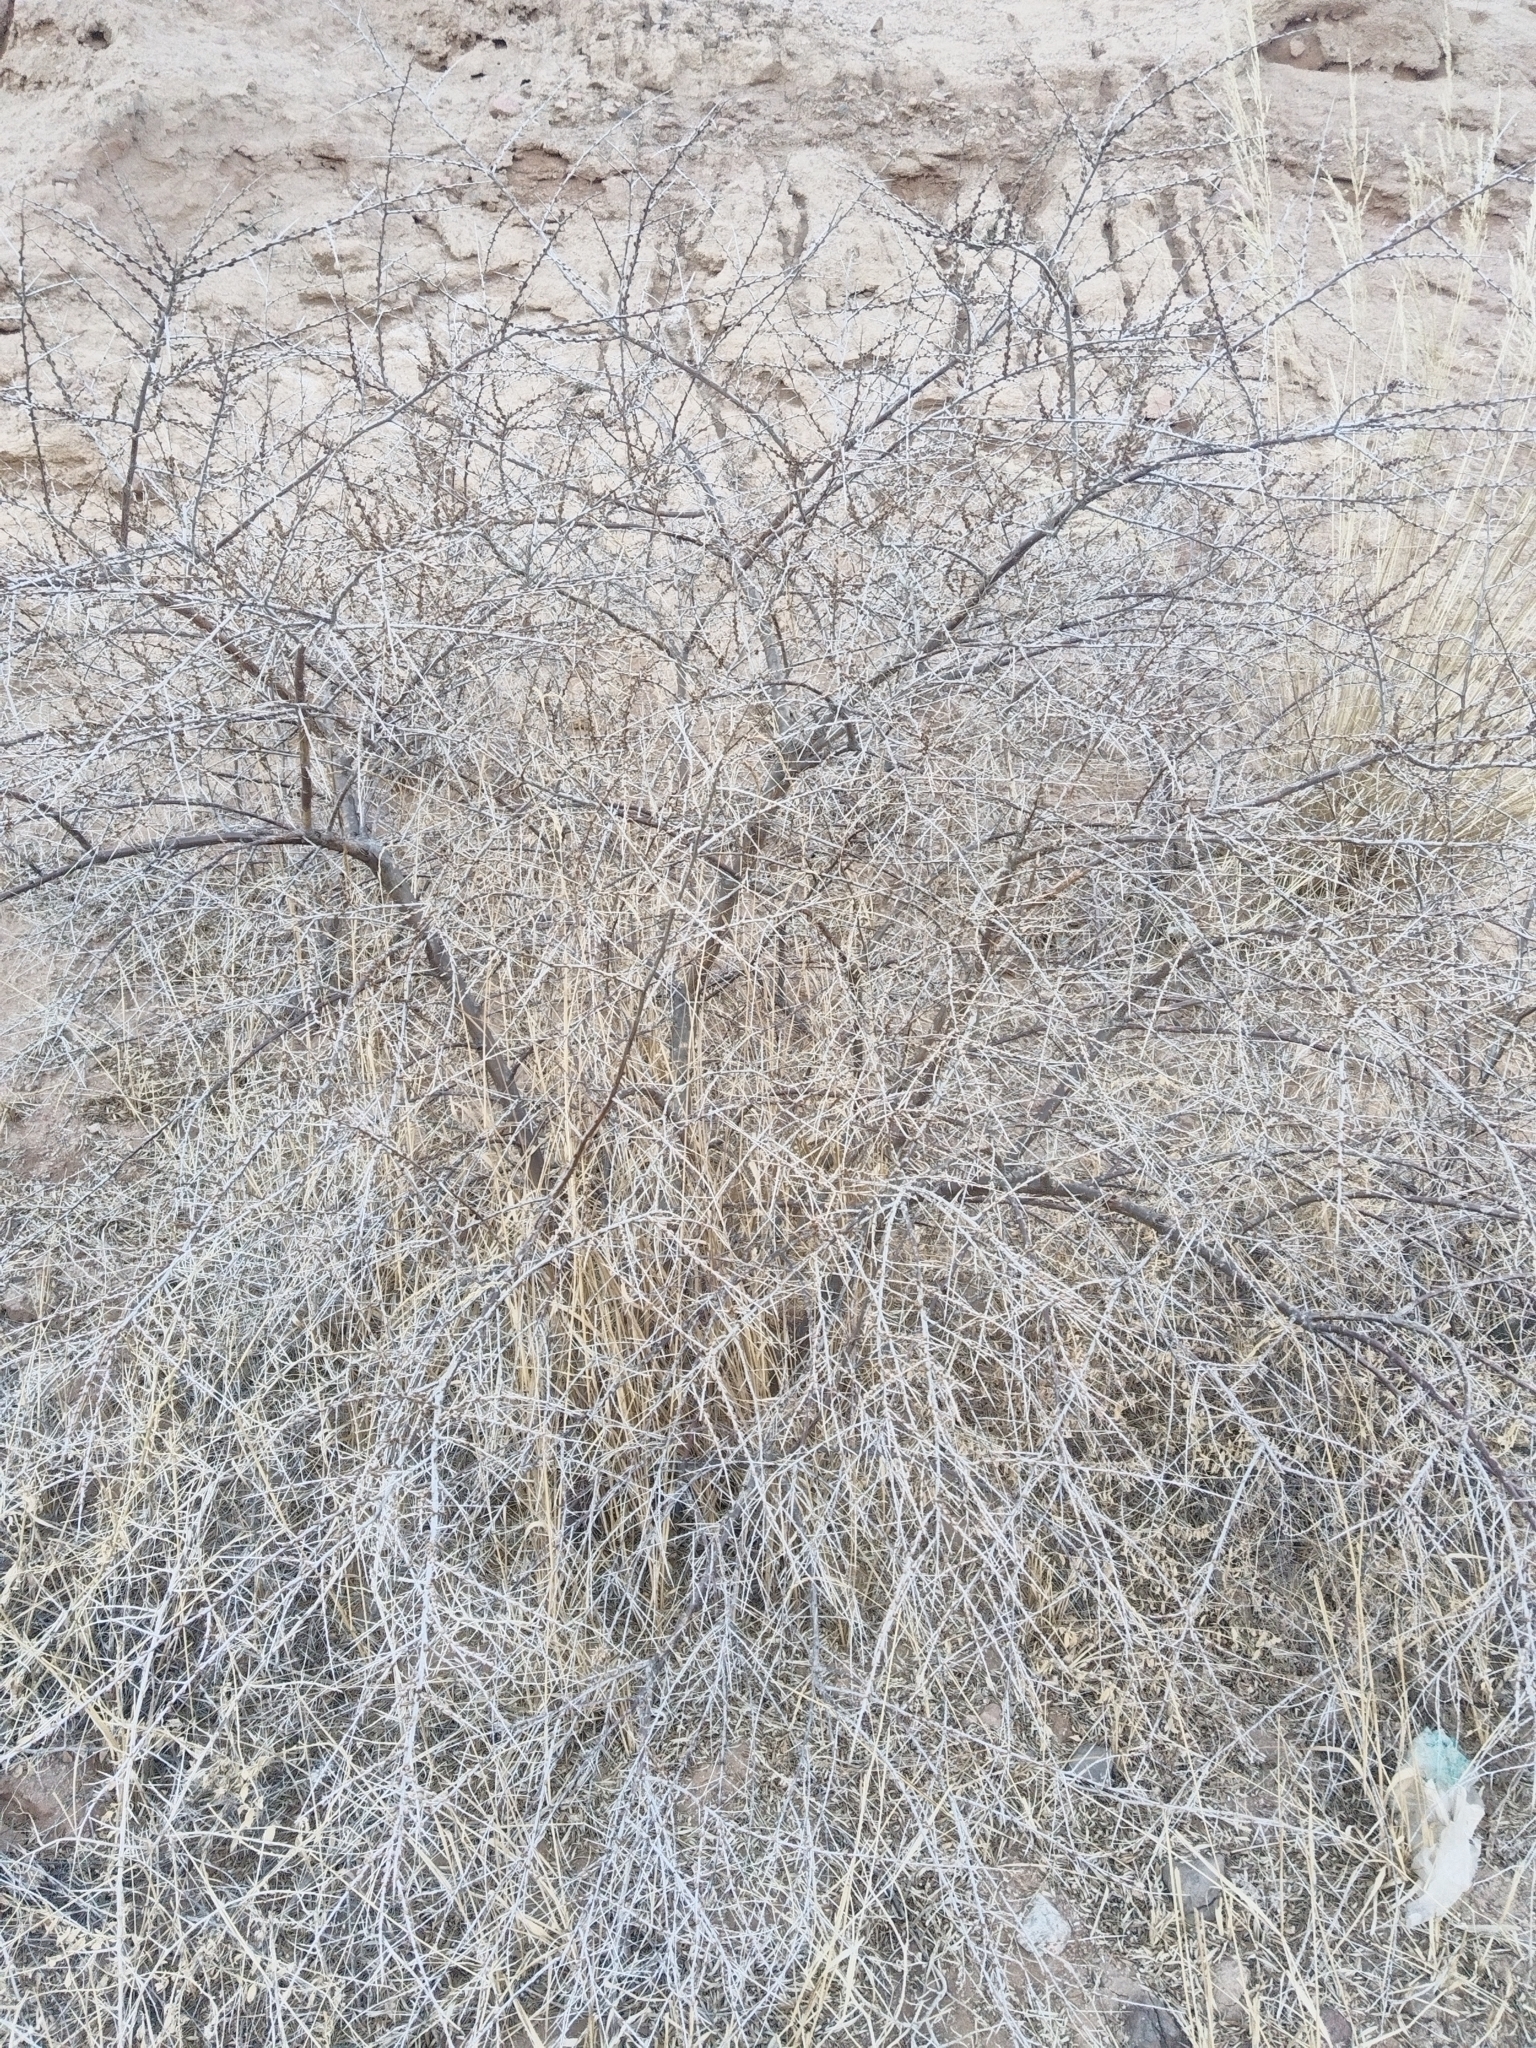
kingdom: Plantae
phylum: Tracheophyta
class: Magnoliopsida
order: Rosales
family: Elaeagnaceae
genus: Hippophae
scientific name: Hippophae rhamnoides
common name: Sea-buckthorn
